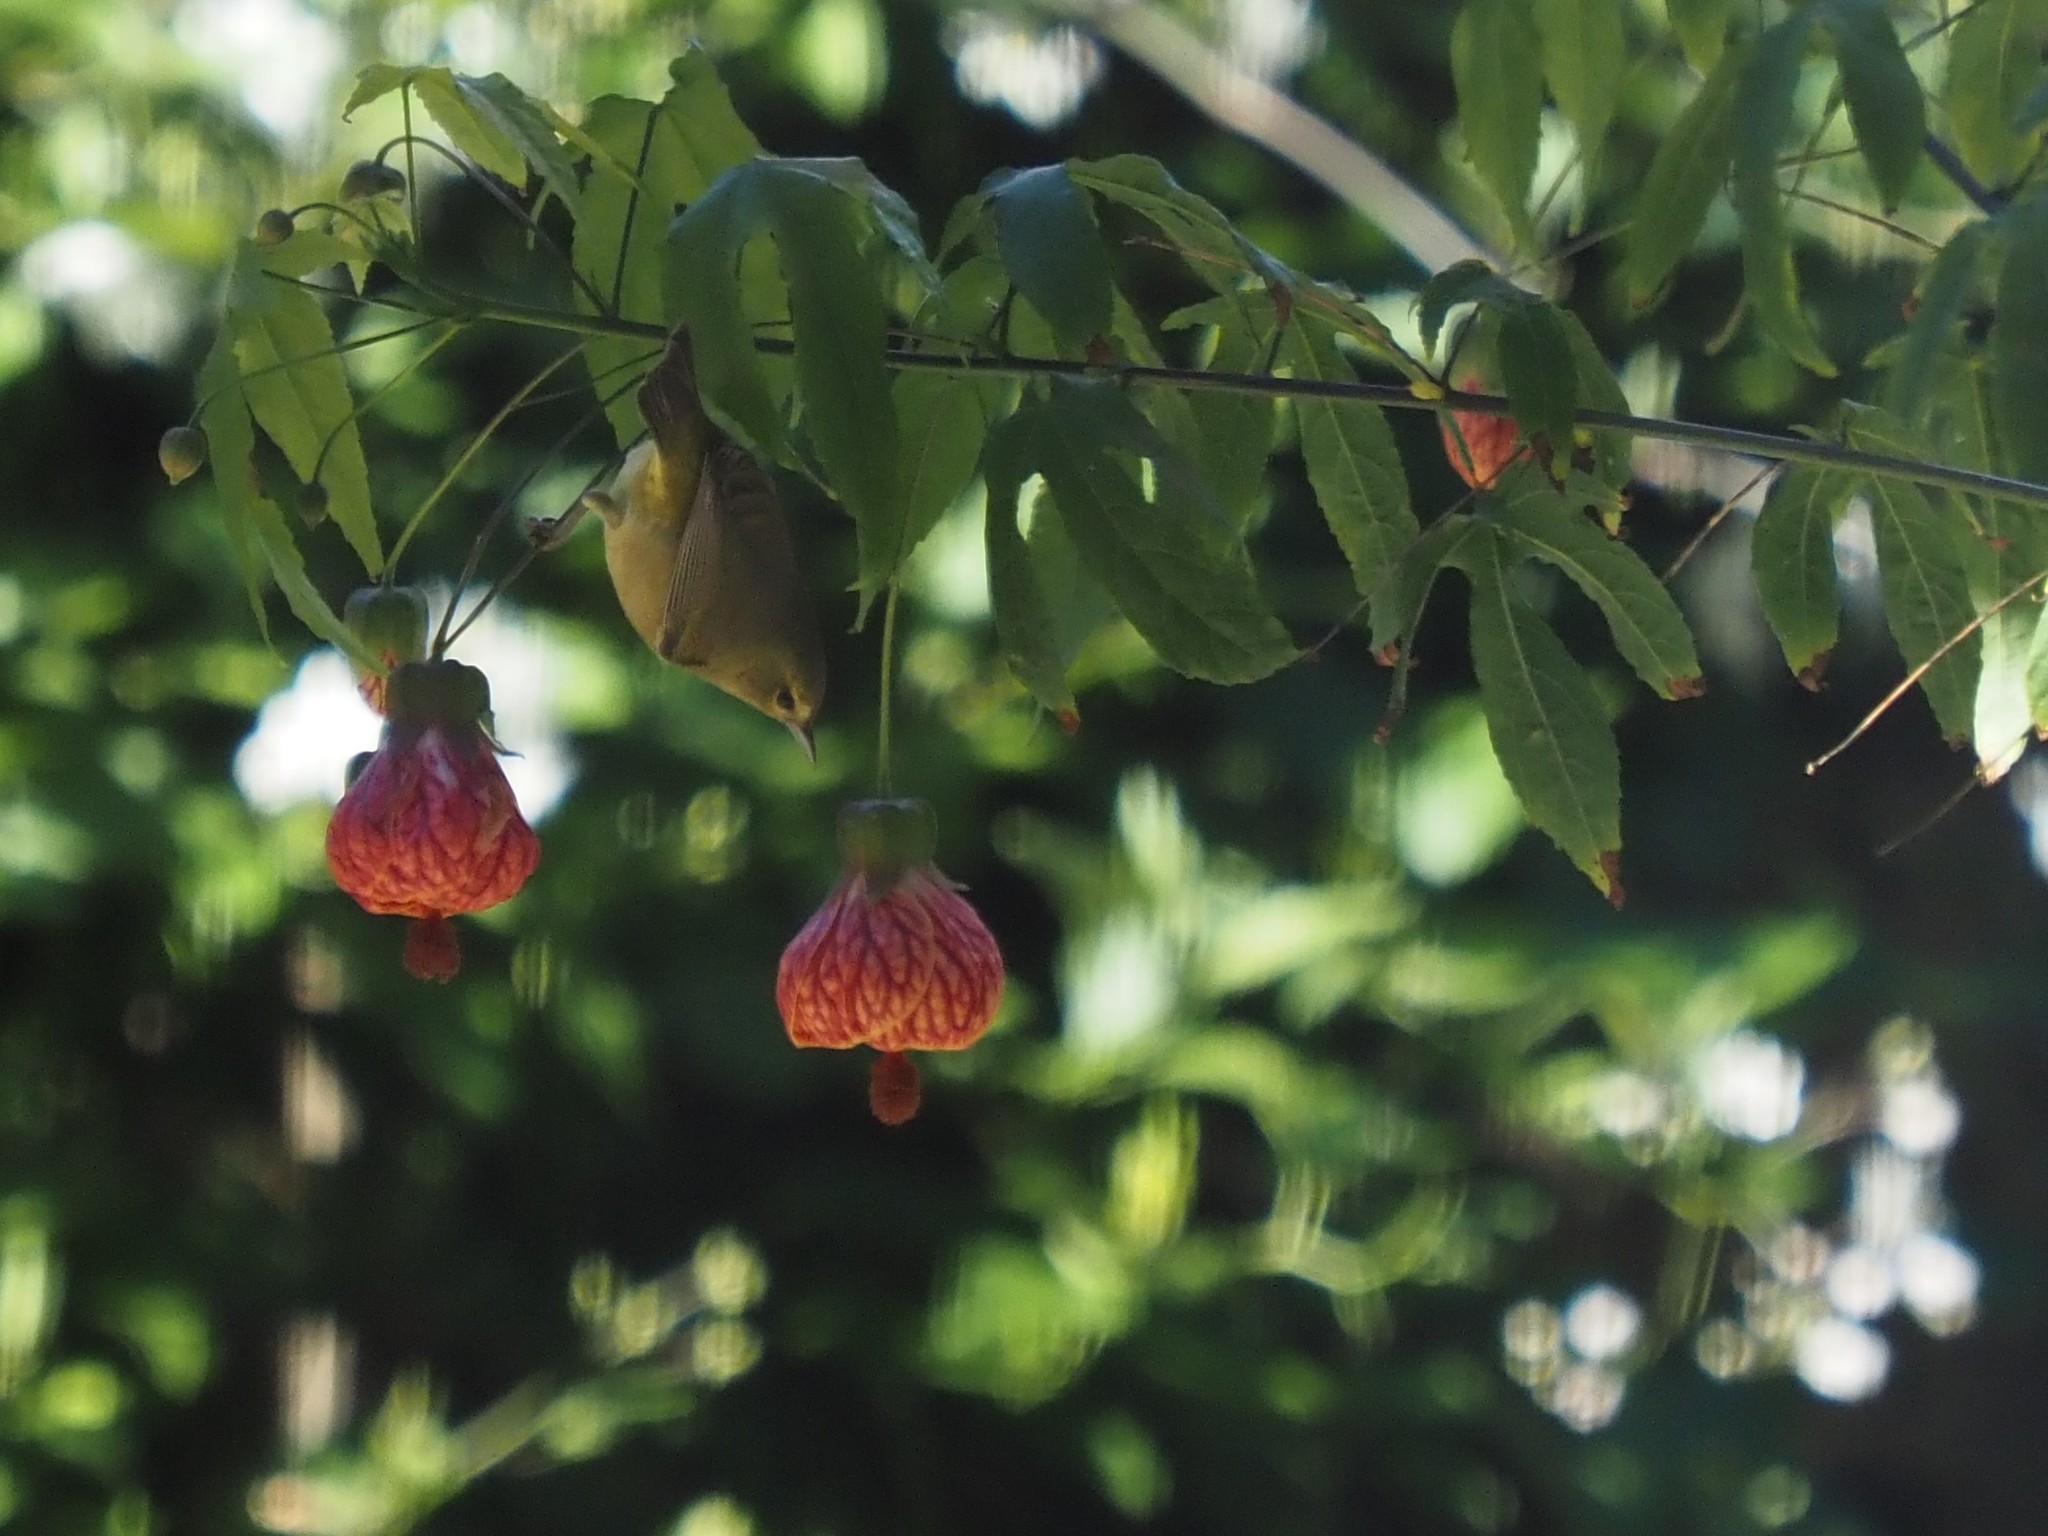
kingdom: Animalia
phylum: Chordata
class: Aves
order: Passeriformes
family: Parulidae
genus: Leiothlypis
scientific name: Leiothlypis celata
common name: Orange-crowned warbler
